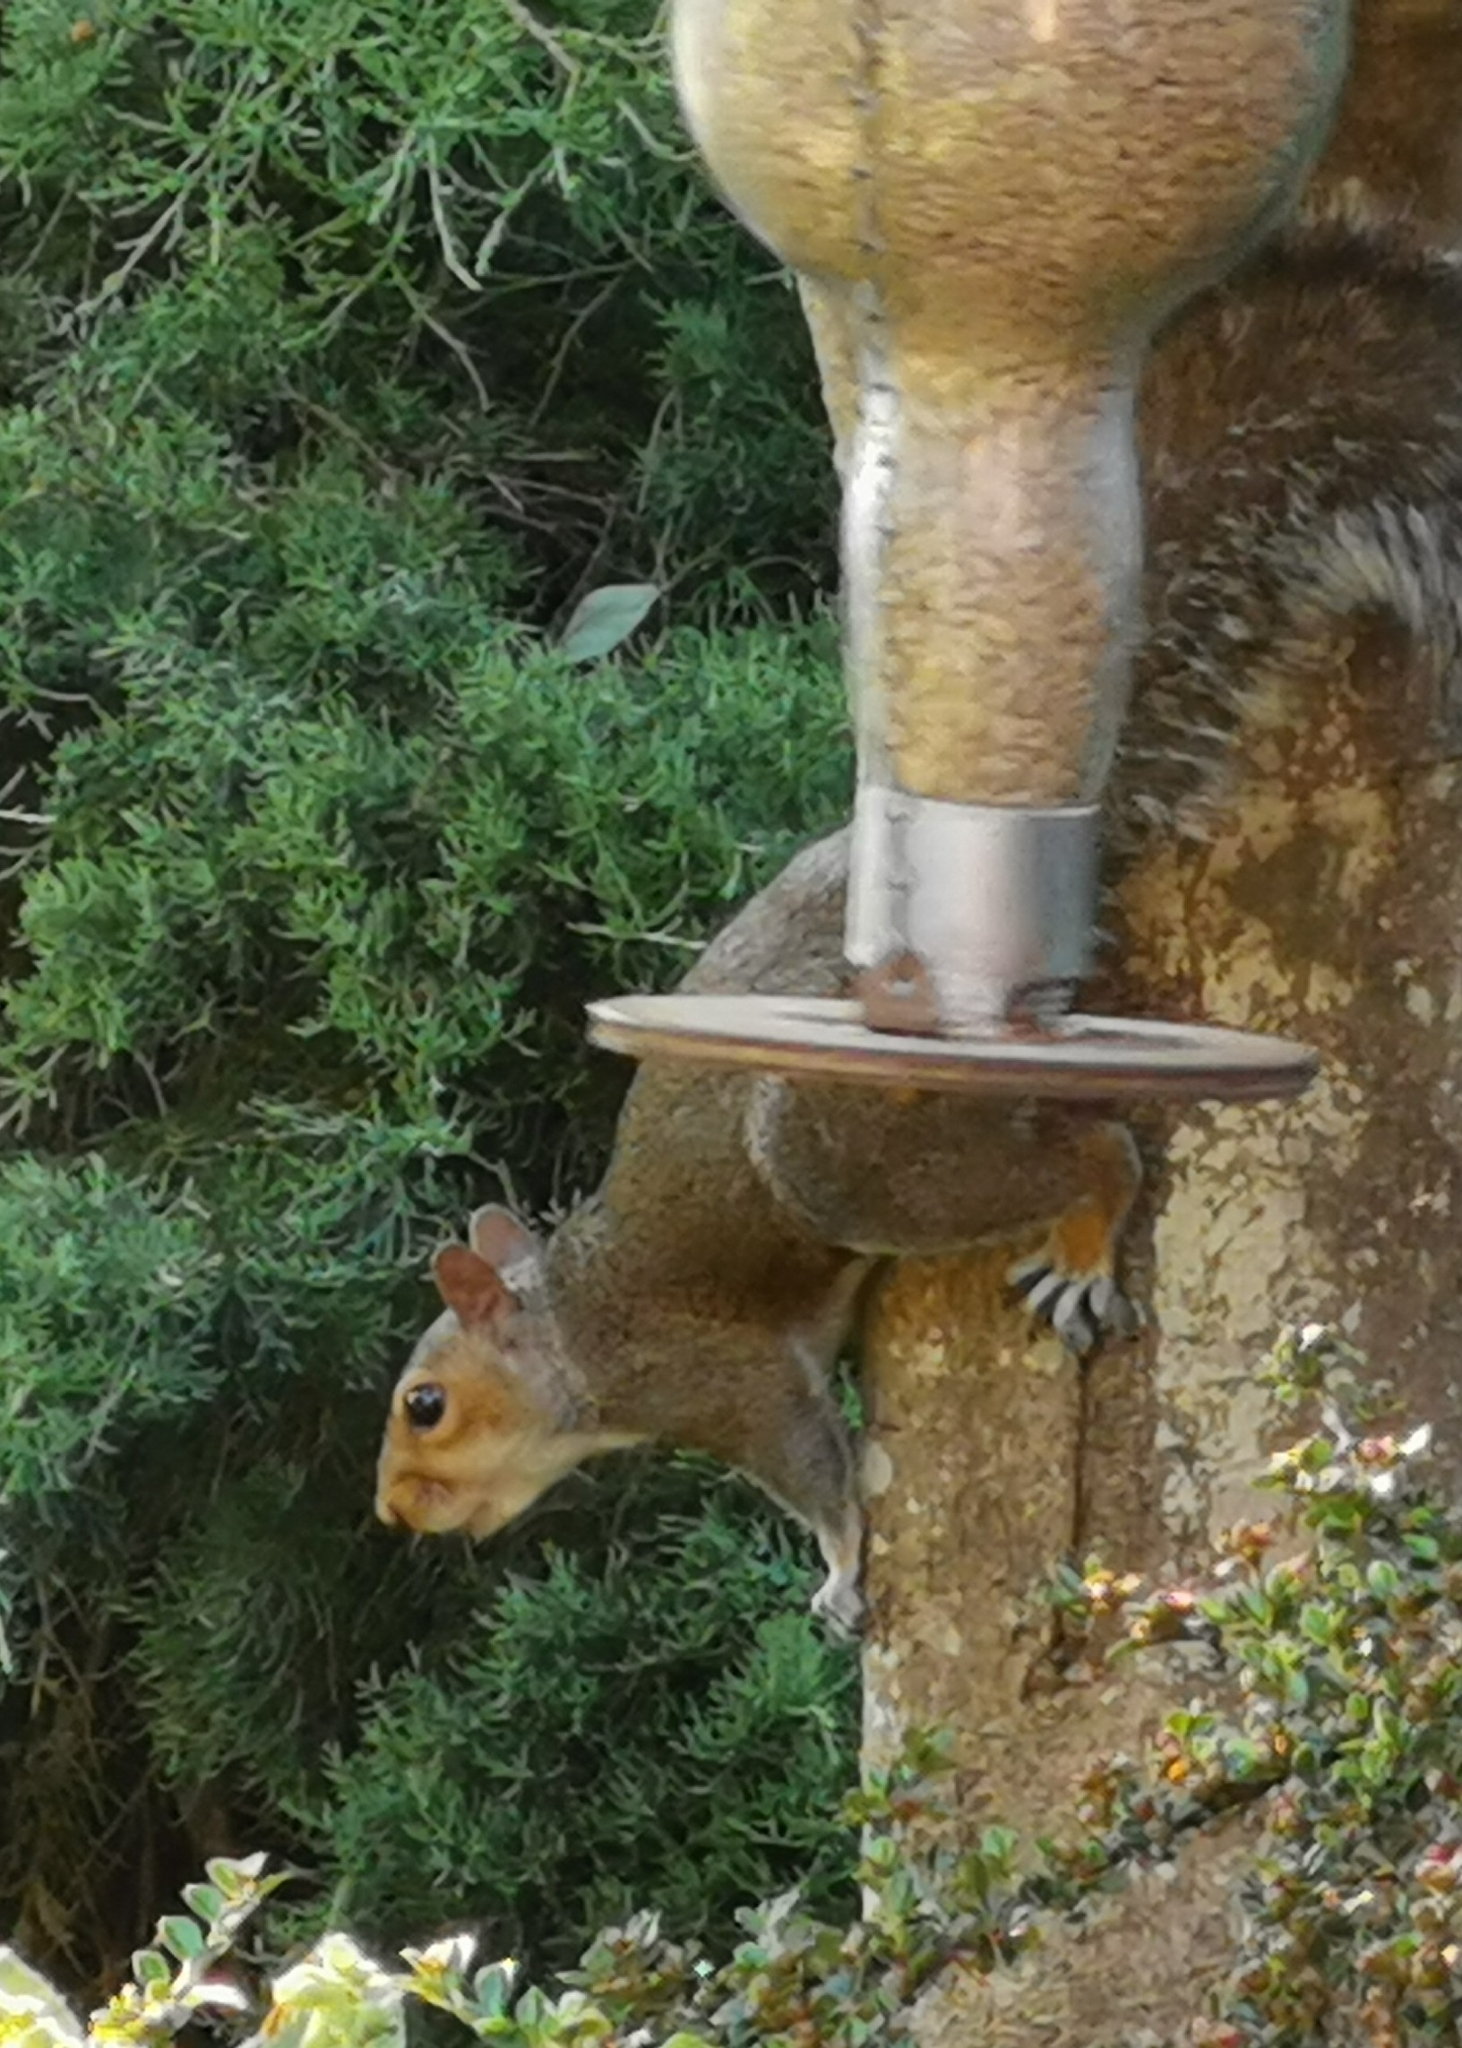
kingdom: Animalia
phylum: Chordata
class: Mammalia
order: Rodentia
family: Sciuridae
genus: Sciurus
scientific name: Sciurus carolinensis
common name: Eastern gray squirrel
